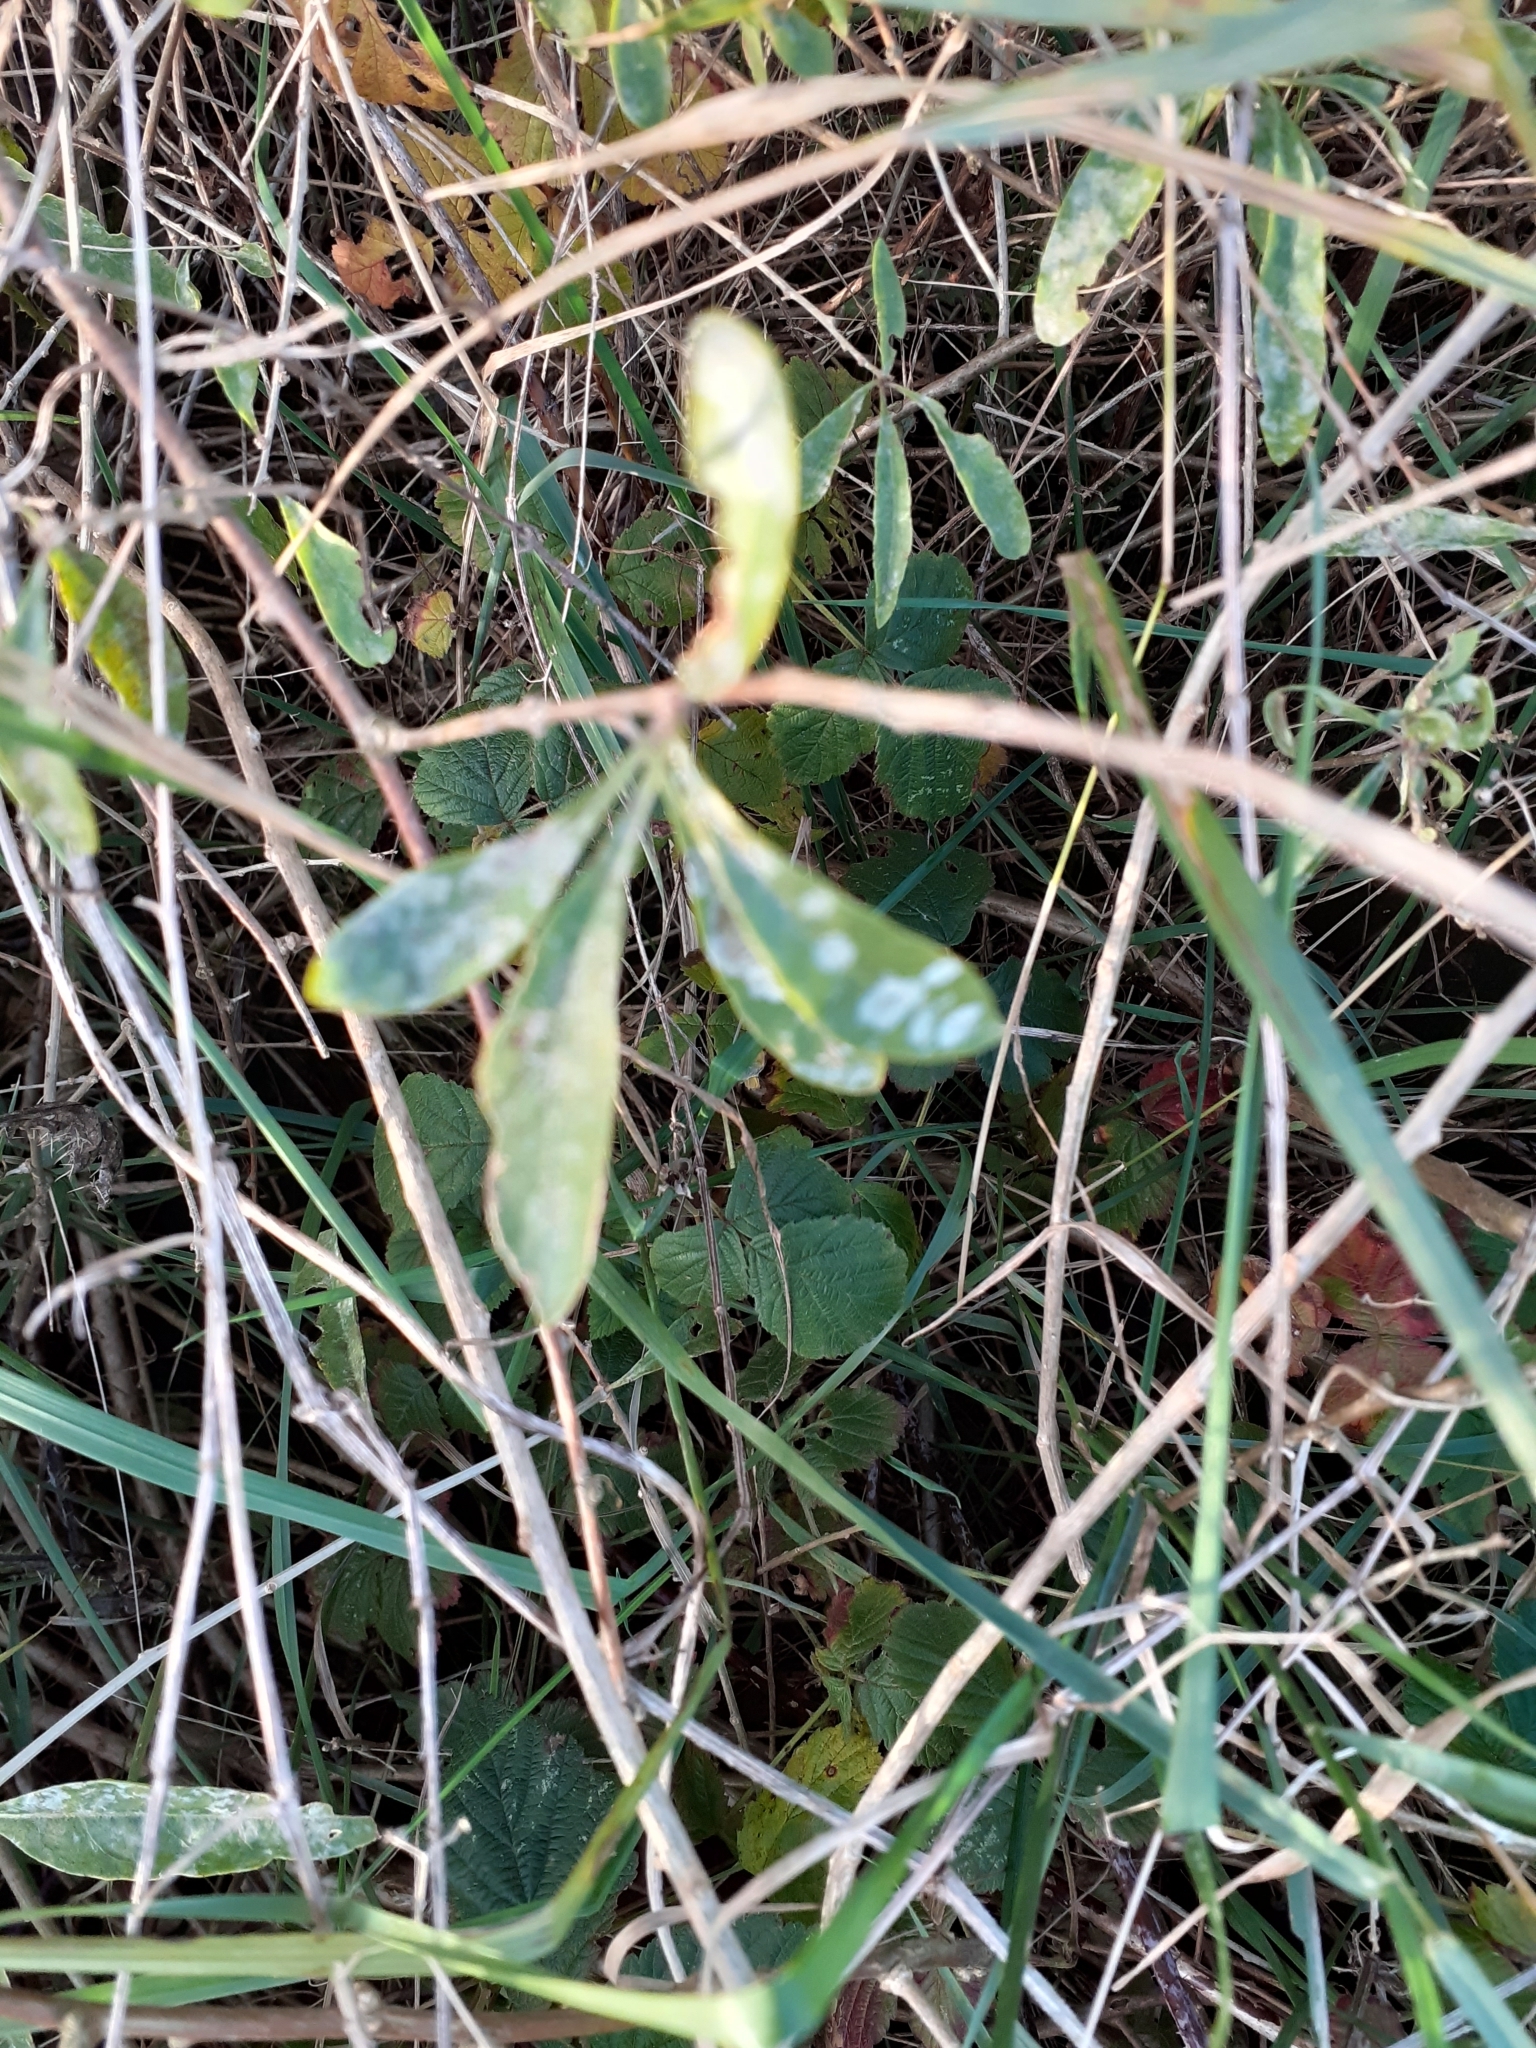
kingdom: Fungi
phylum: Ascomycota
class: Leotiomycetes
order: Helotiales
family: Erysiphaceae
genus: Erysiphe
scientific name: Erysiphe mougeotii
